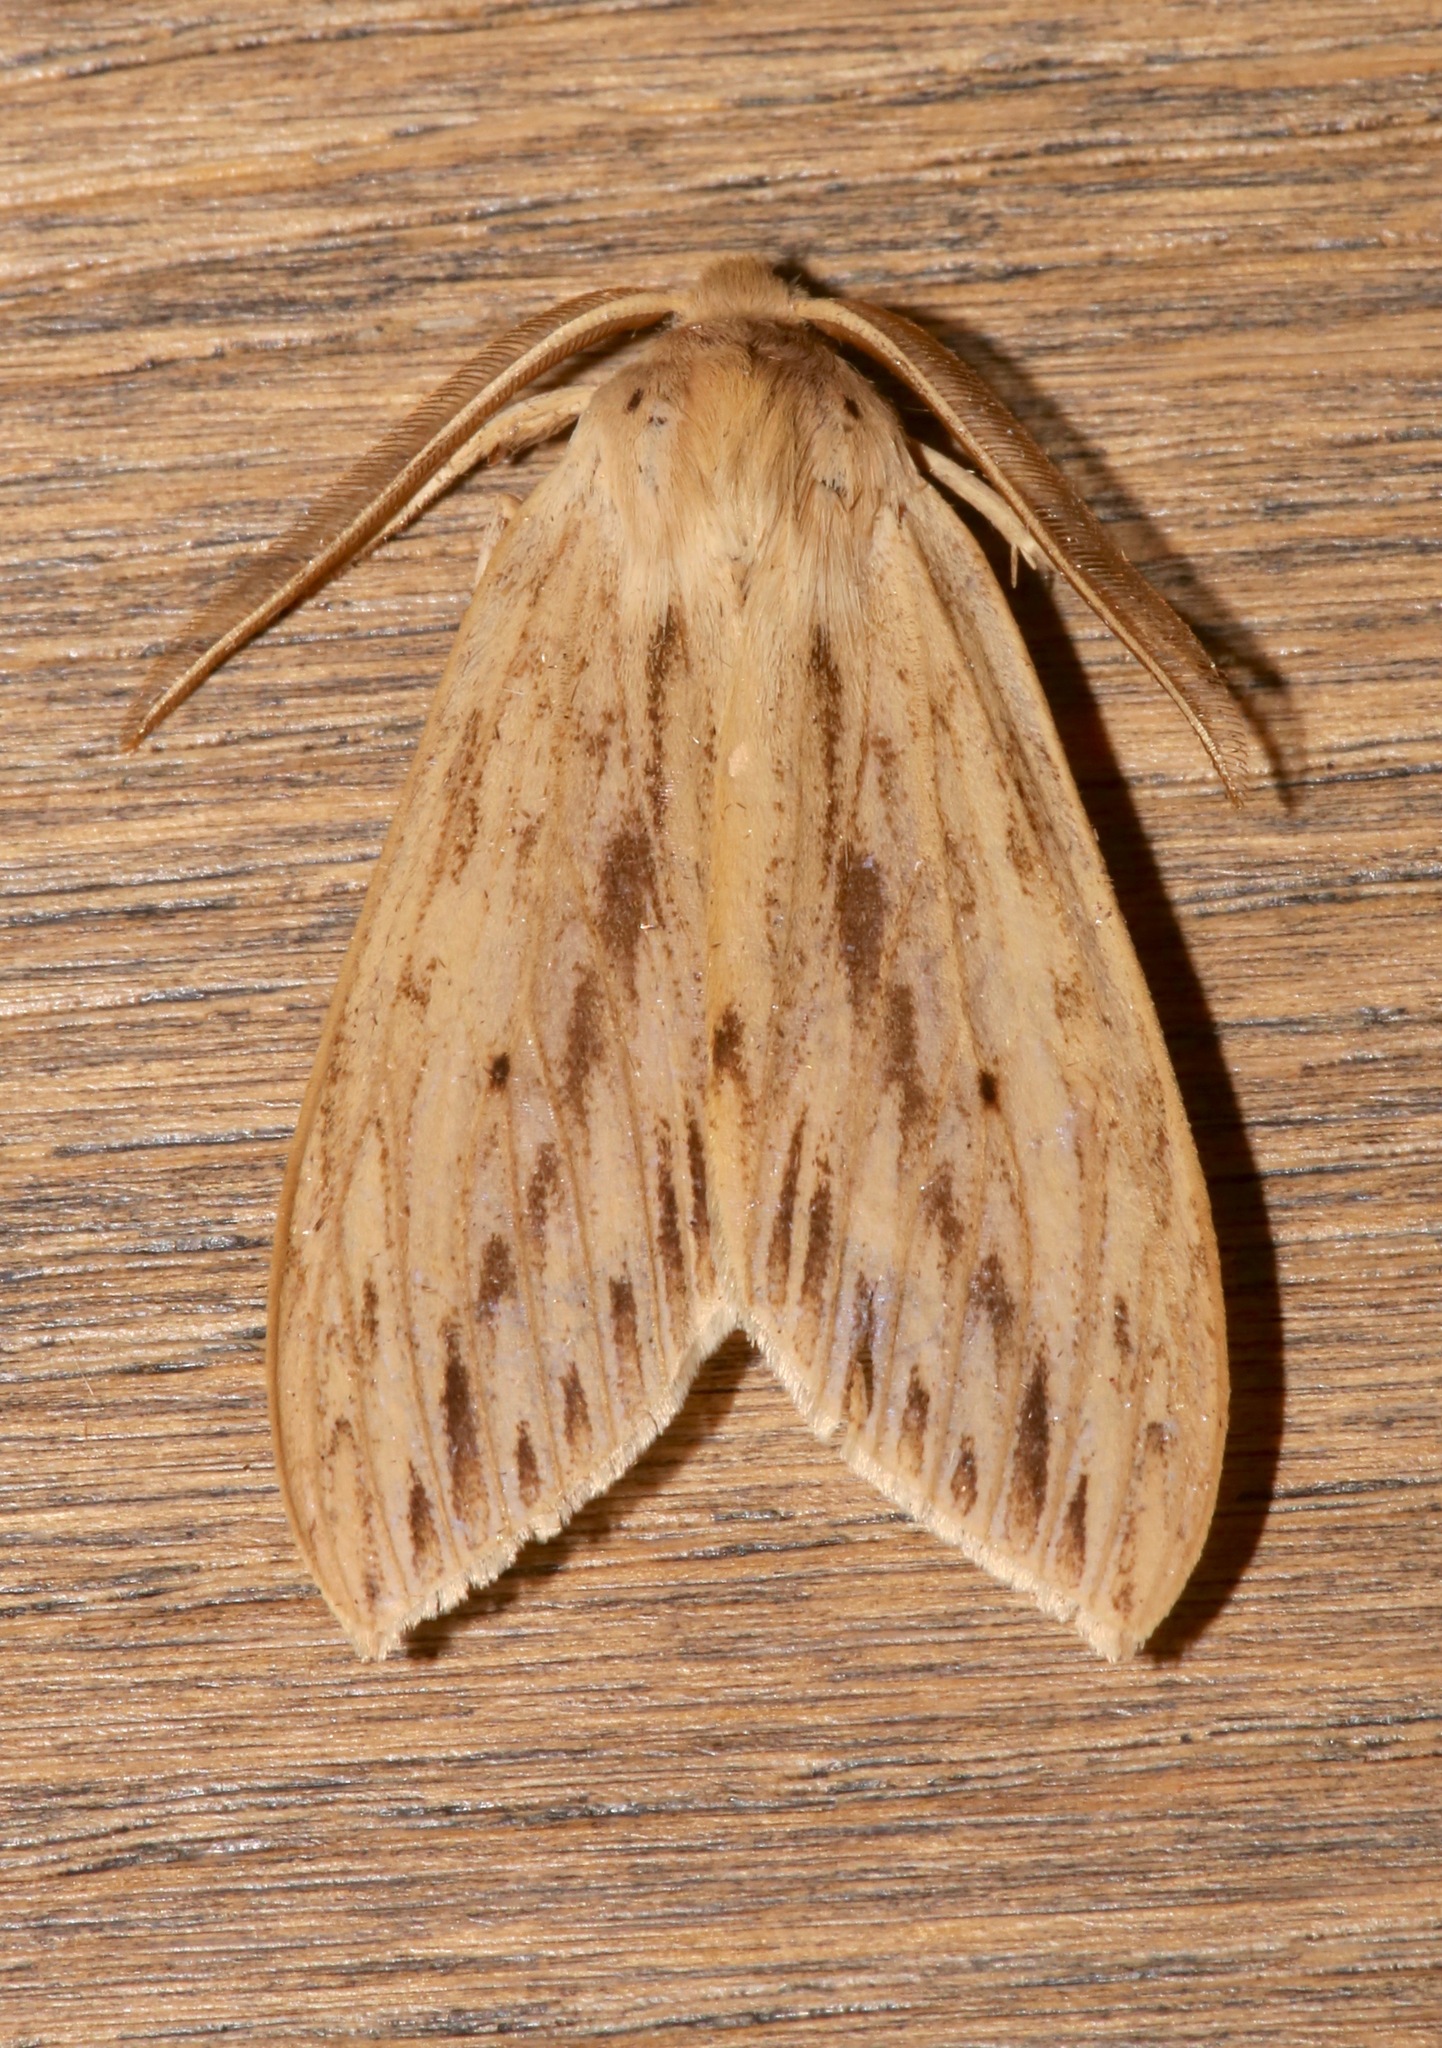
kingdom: Animalia
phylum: Arthropoda
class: Insecta
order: Lepidoptera
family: Erebidae
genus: Leucanopsis
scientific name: Leucanopsis lurida
